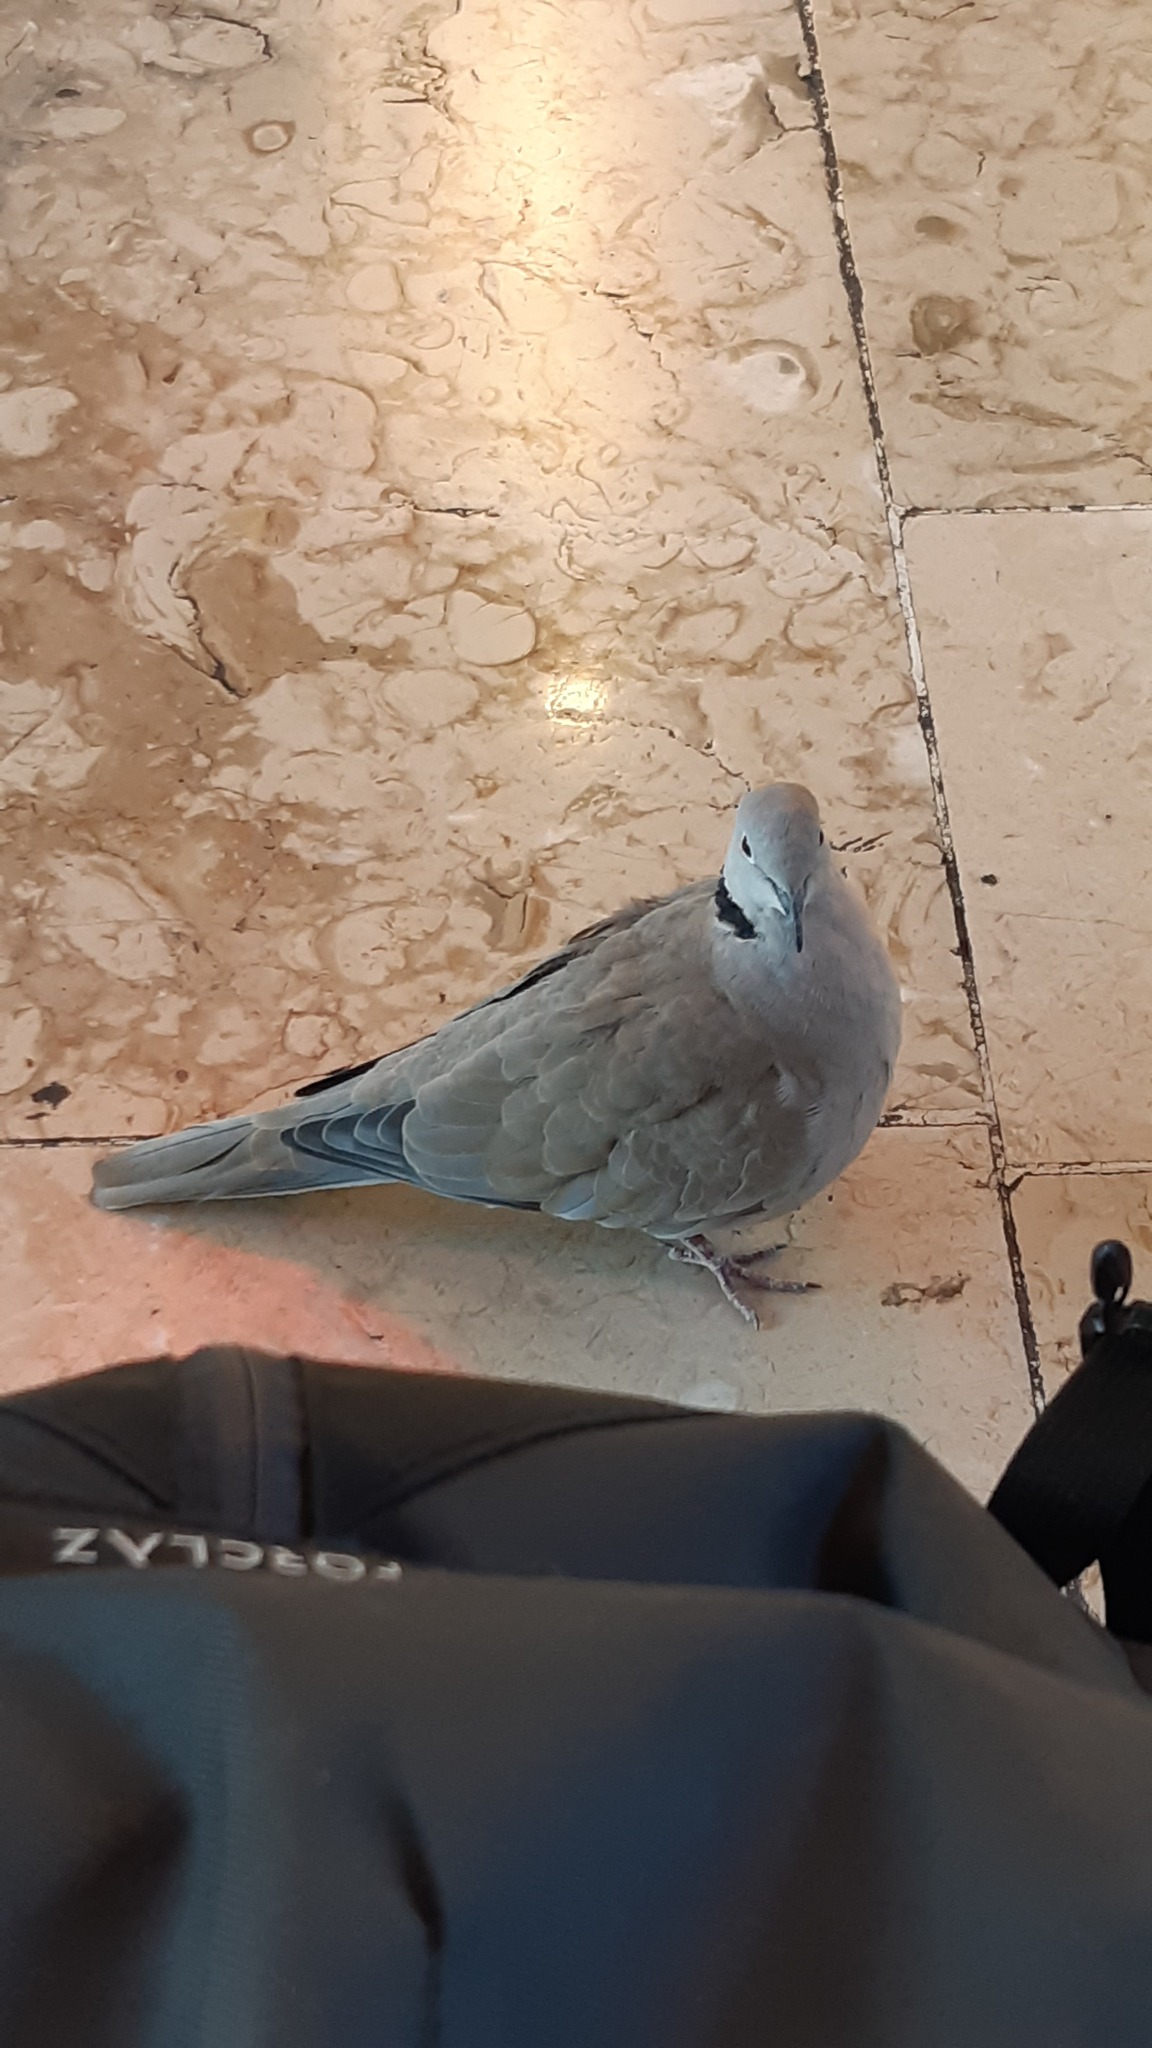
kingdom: Animalia
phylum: Chordata
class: Aves
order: Columbiformes
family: Columbidae
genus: Streptopelia
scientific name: Streptopelia decaocto
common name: Eurasian collared dove
